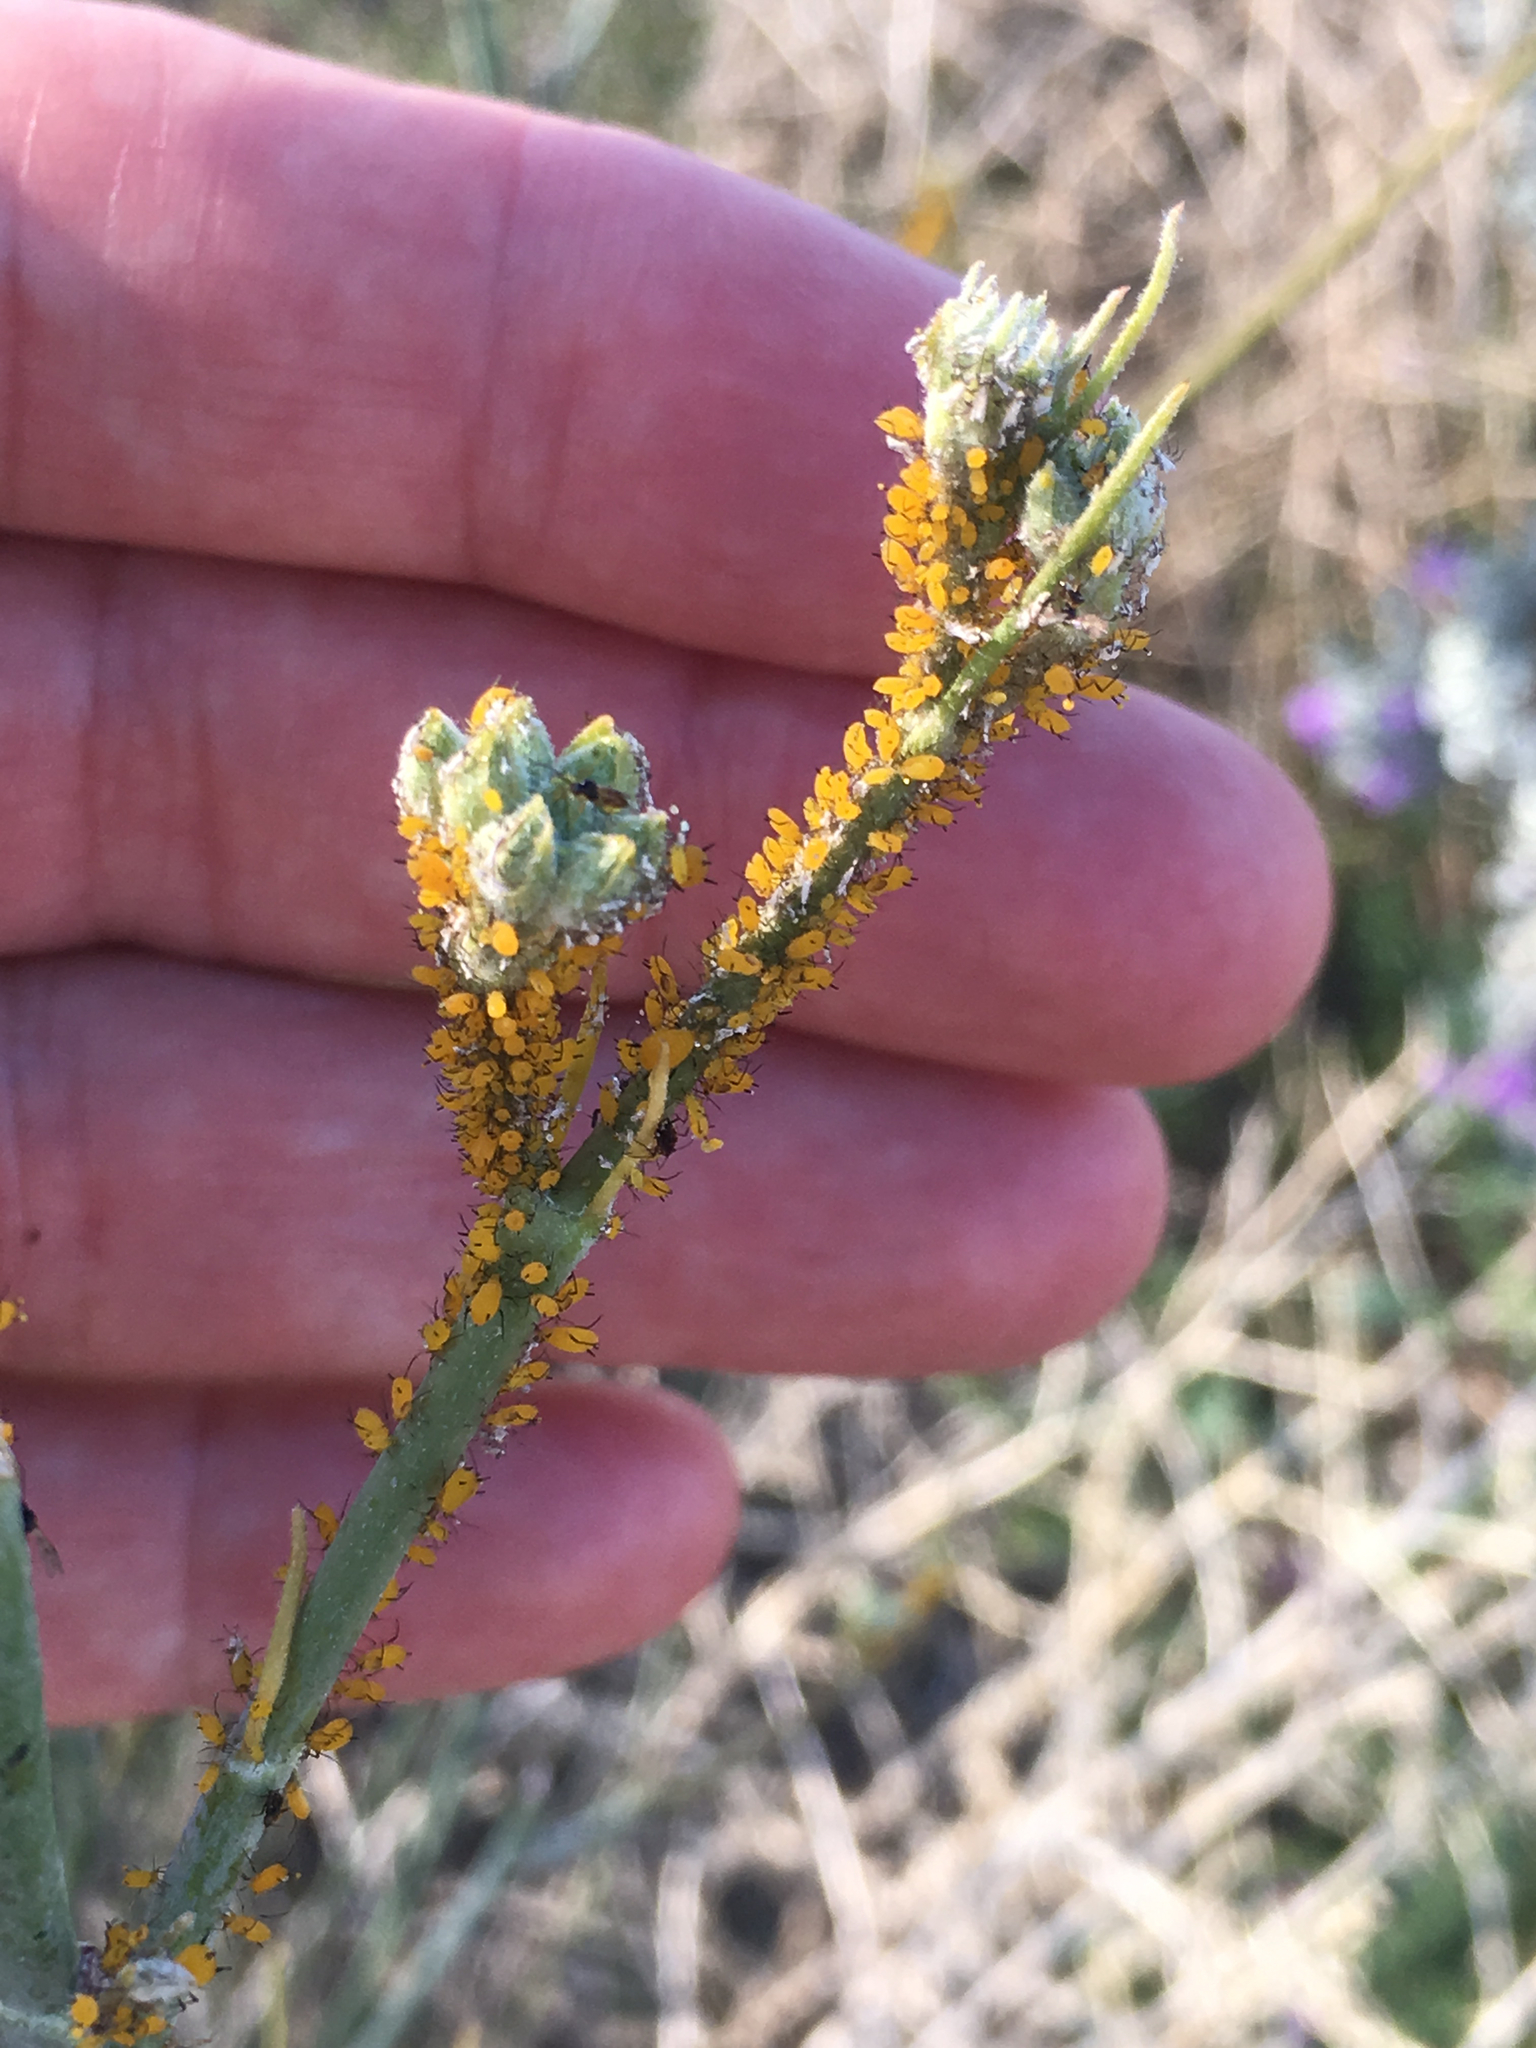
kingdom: Plantae
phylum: Tracheophyta
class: Magnoliopsida
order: Gentianales
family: Apocynaceae
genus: Asclepias
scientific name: Asclepias subulata
